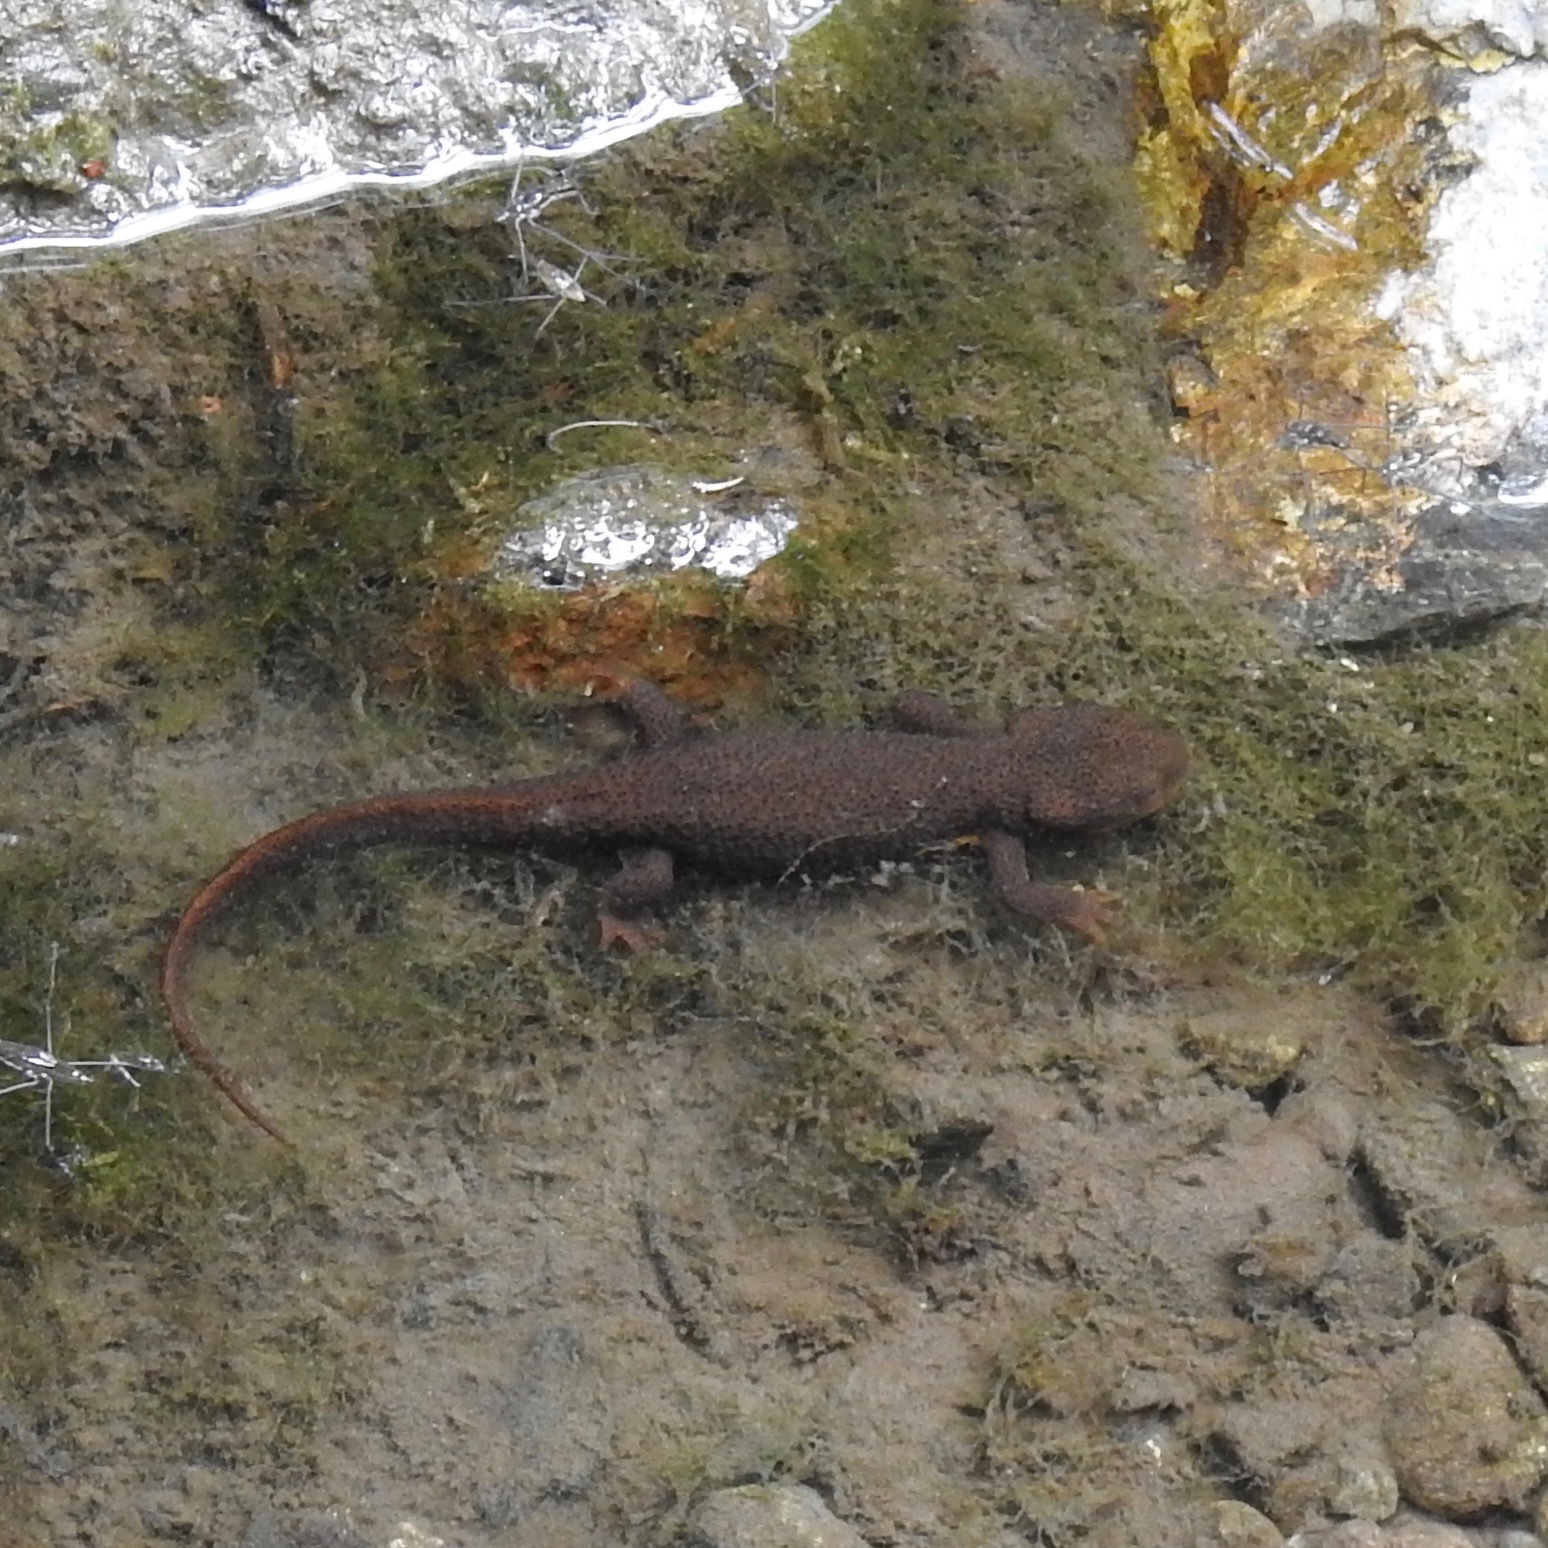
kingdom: Animalia
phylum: Chordata
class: Amphibia
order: Caudata
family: Salamandridae
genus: Taricha
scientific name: Taricha granulosa
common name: Roughskin newt
